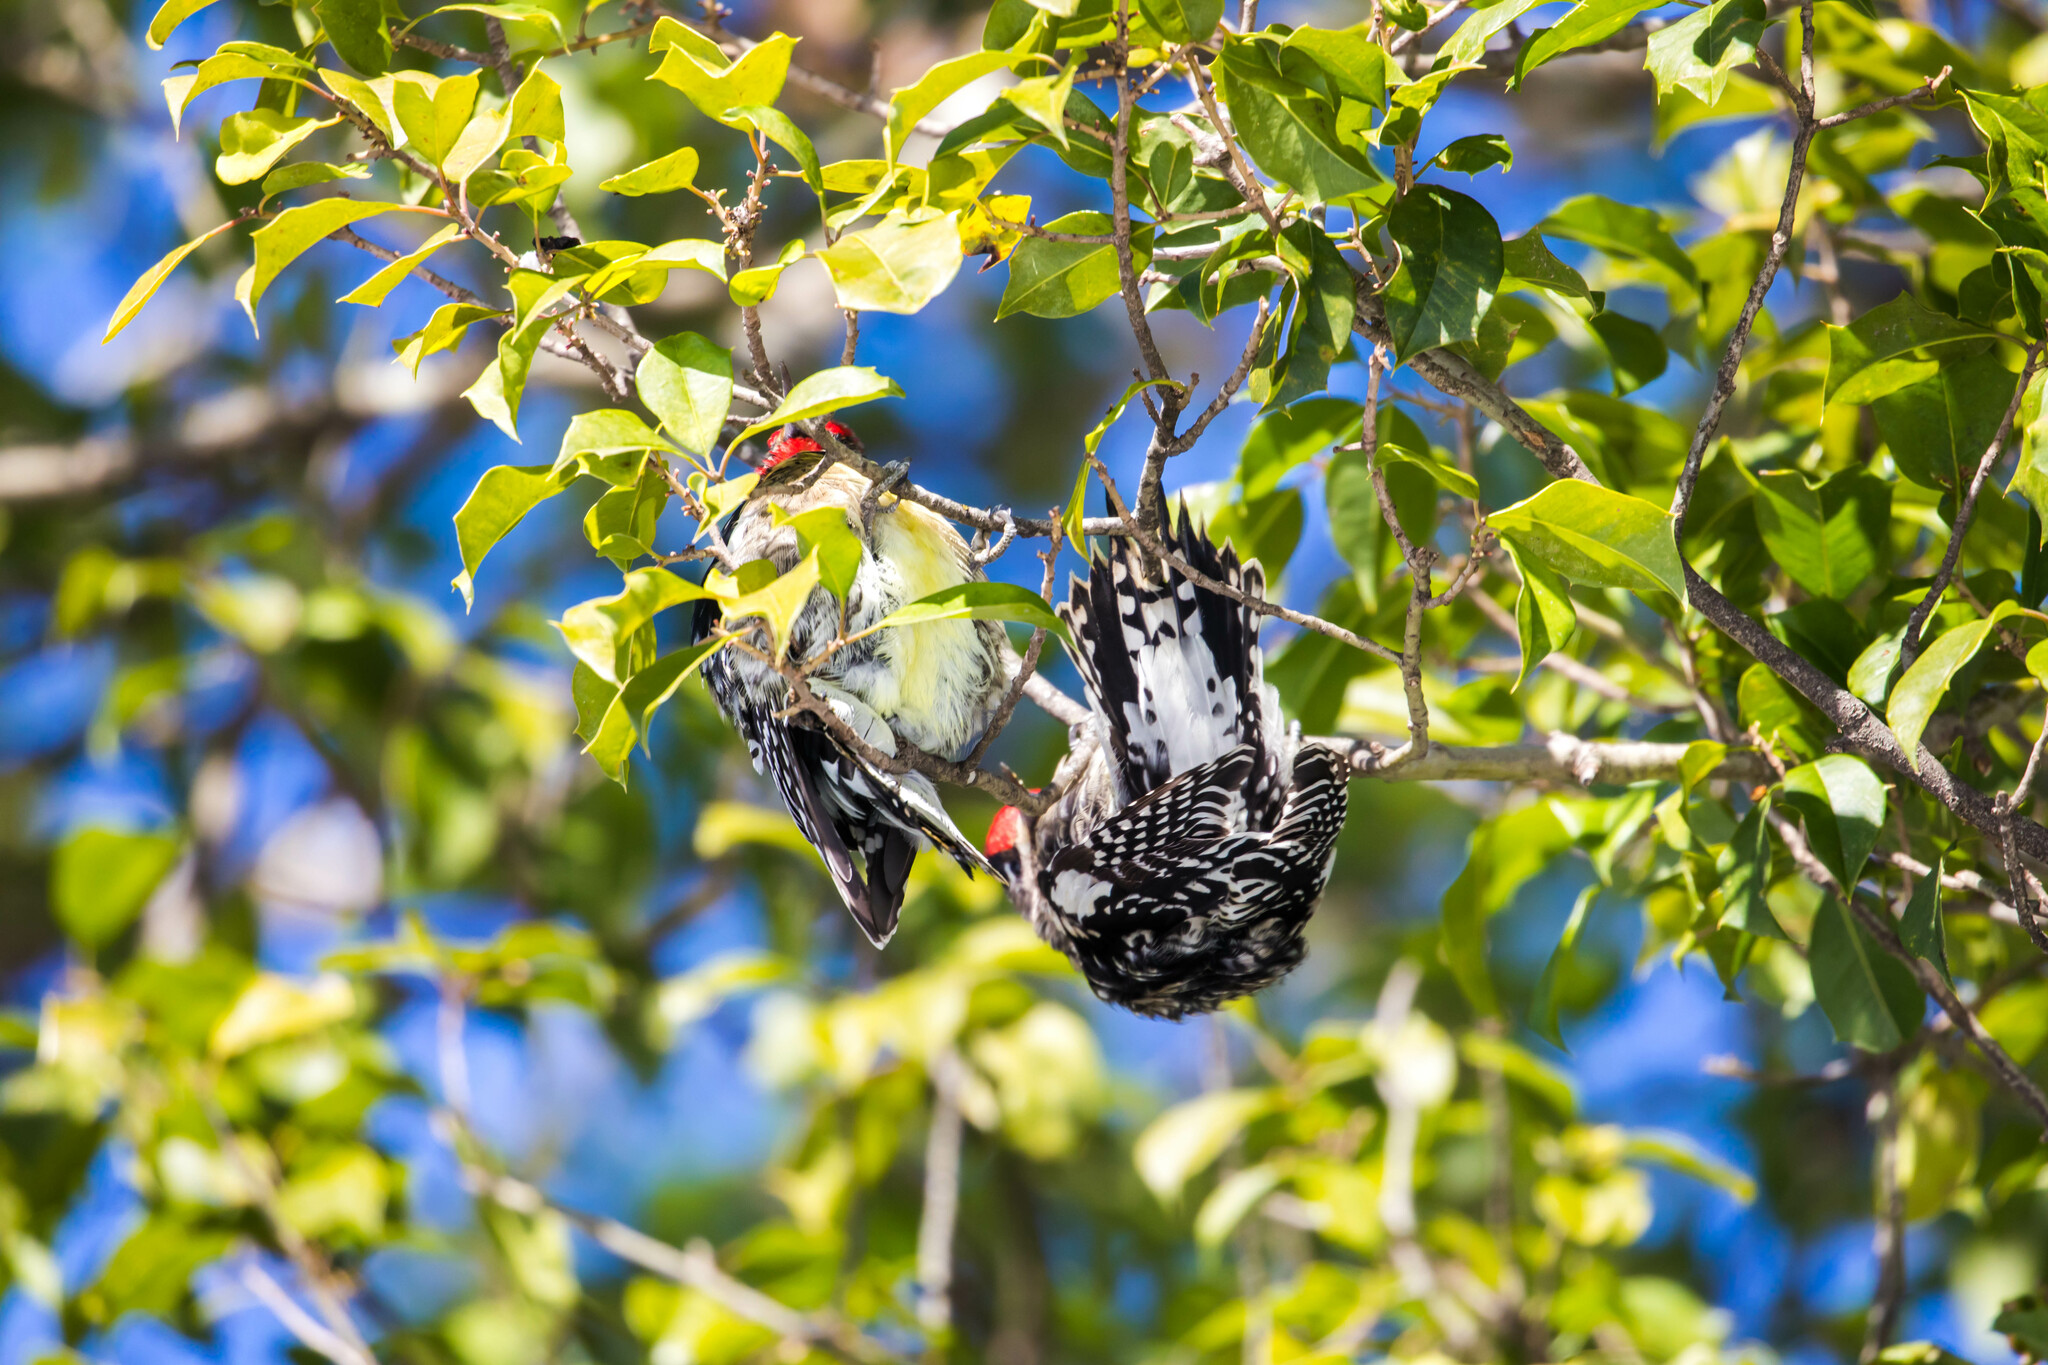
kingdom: Animalia
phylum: Chordata
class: Aves
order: Piciformes
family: Picidae
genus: Sphyrapicus
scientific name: Sphyrapicus varius
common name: Yellow-bellied sapsucker
